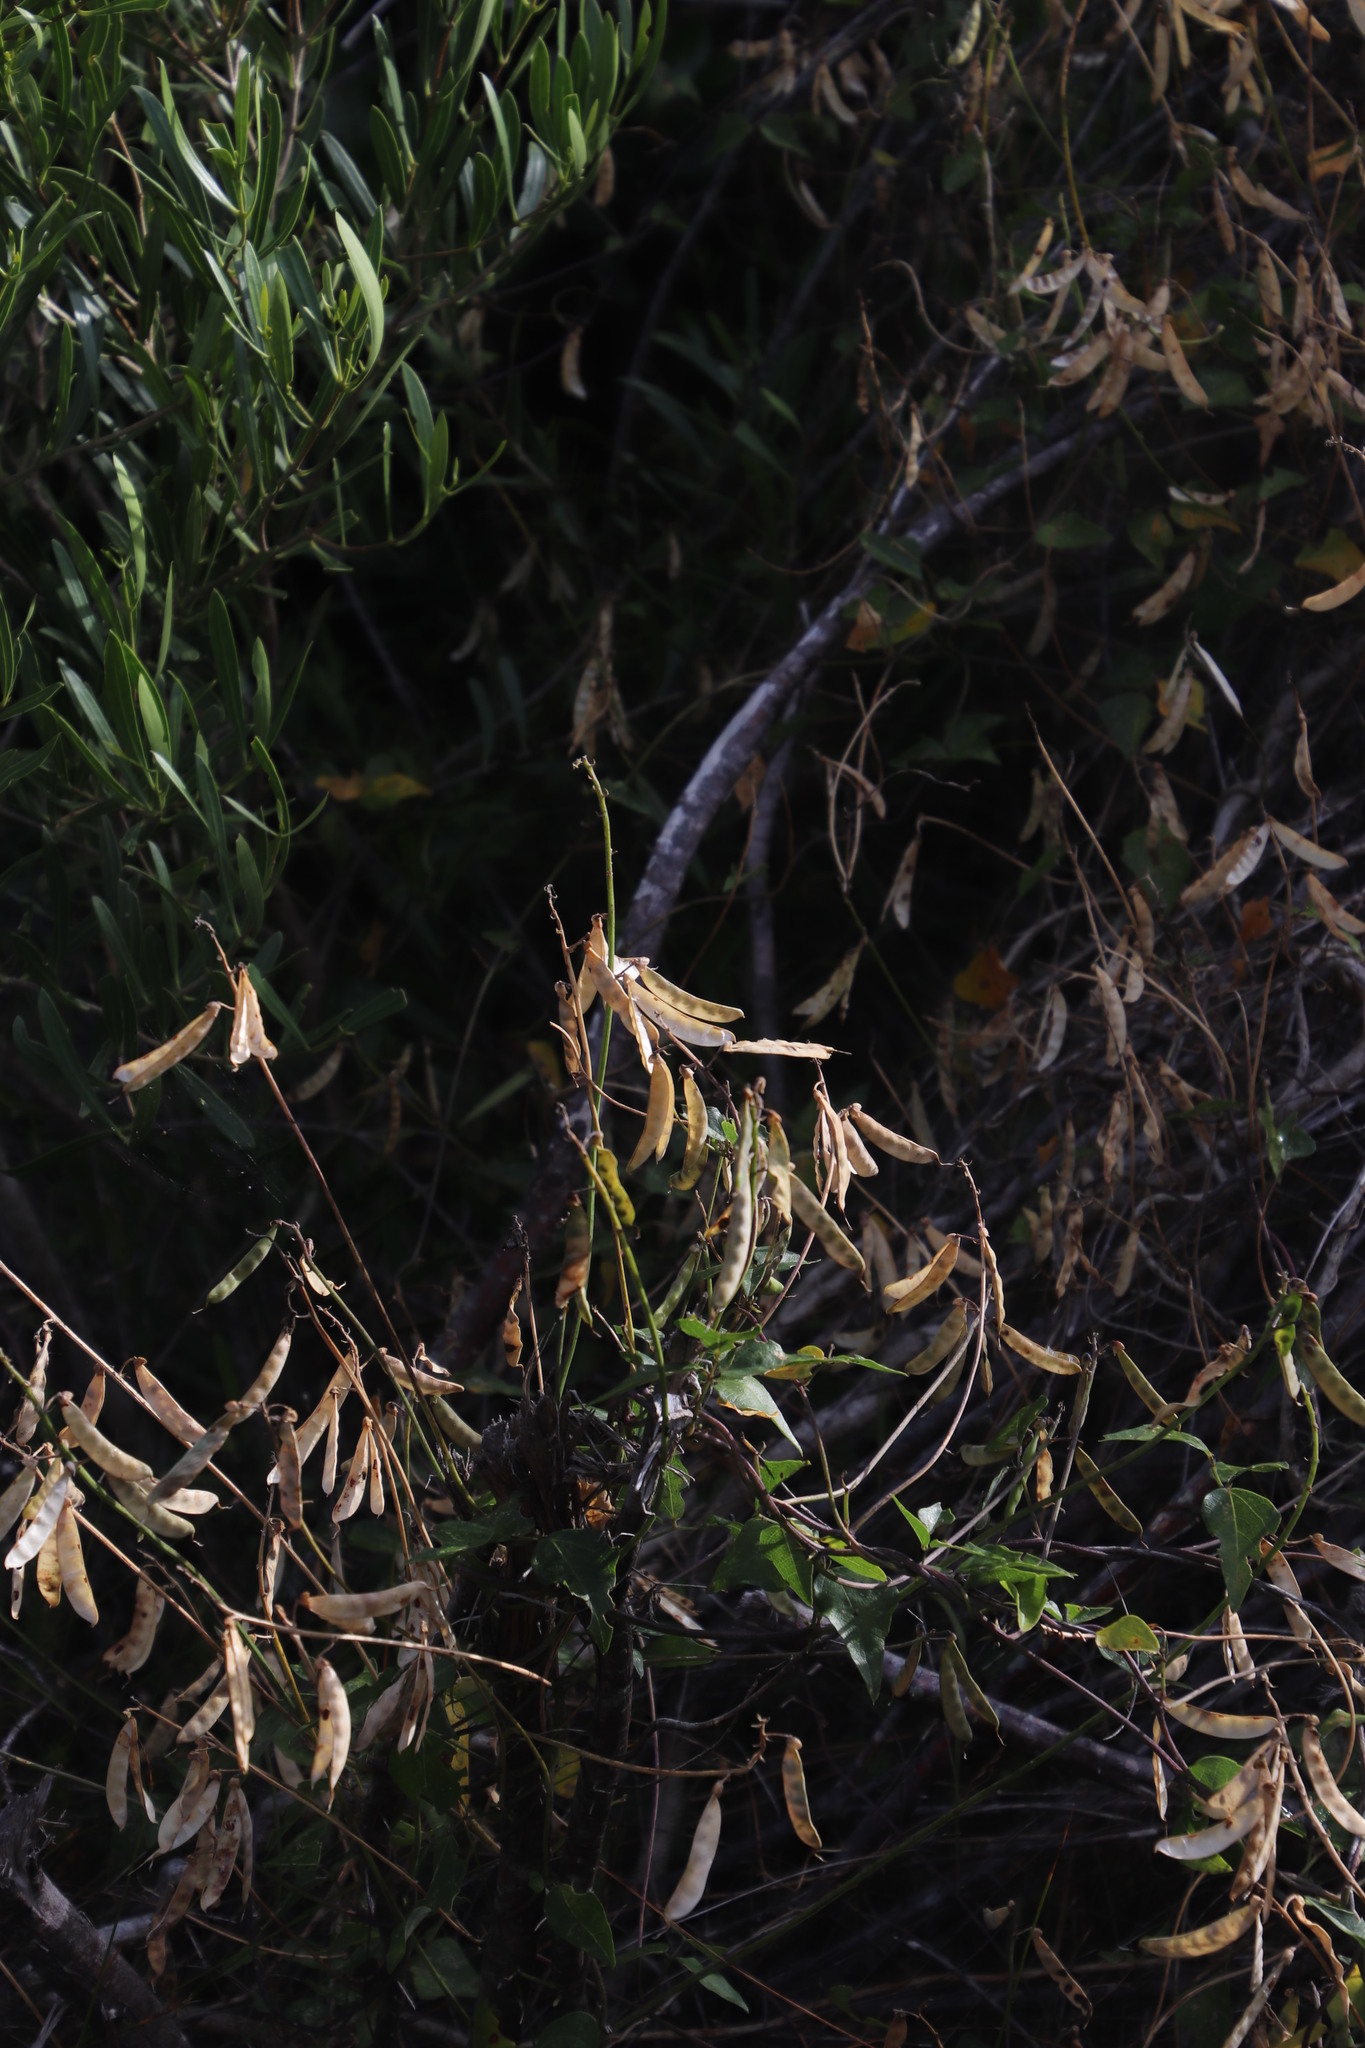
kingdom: Plantae
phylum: Tracheophyta
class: Magnoliopsida
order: Fabales
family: Fabaceae
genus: Dipogon
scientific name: Dipogon lignosus
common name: Okie bean
